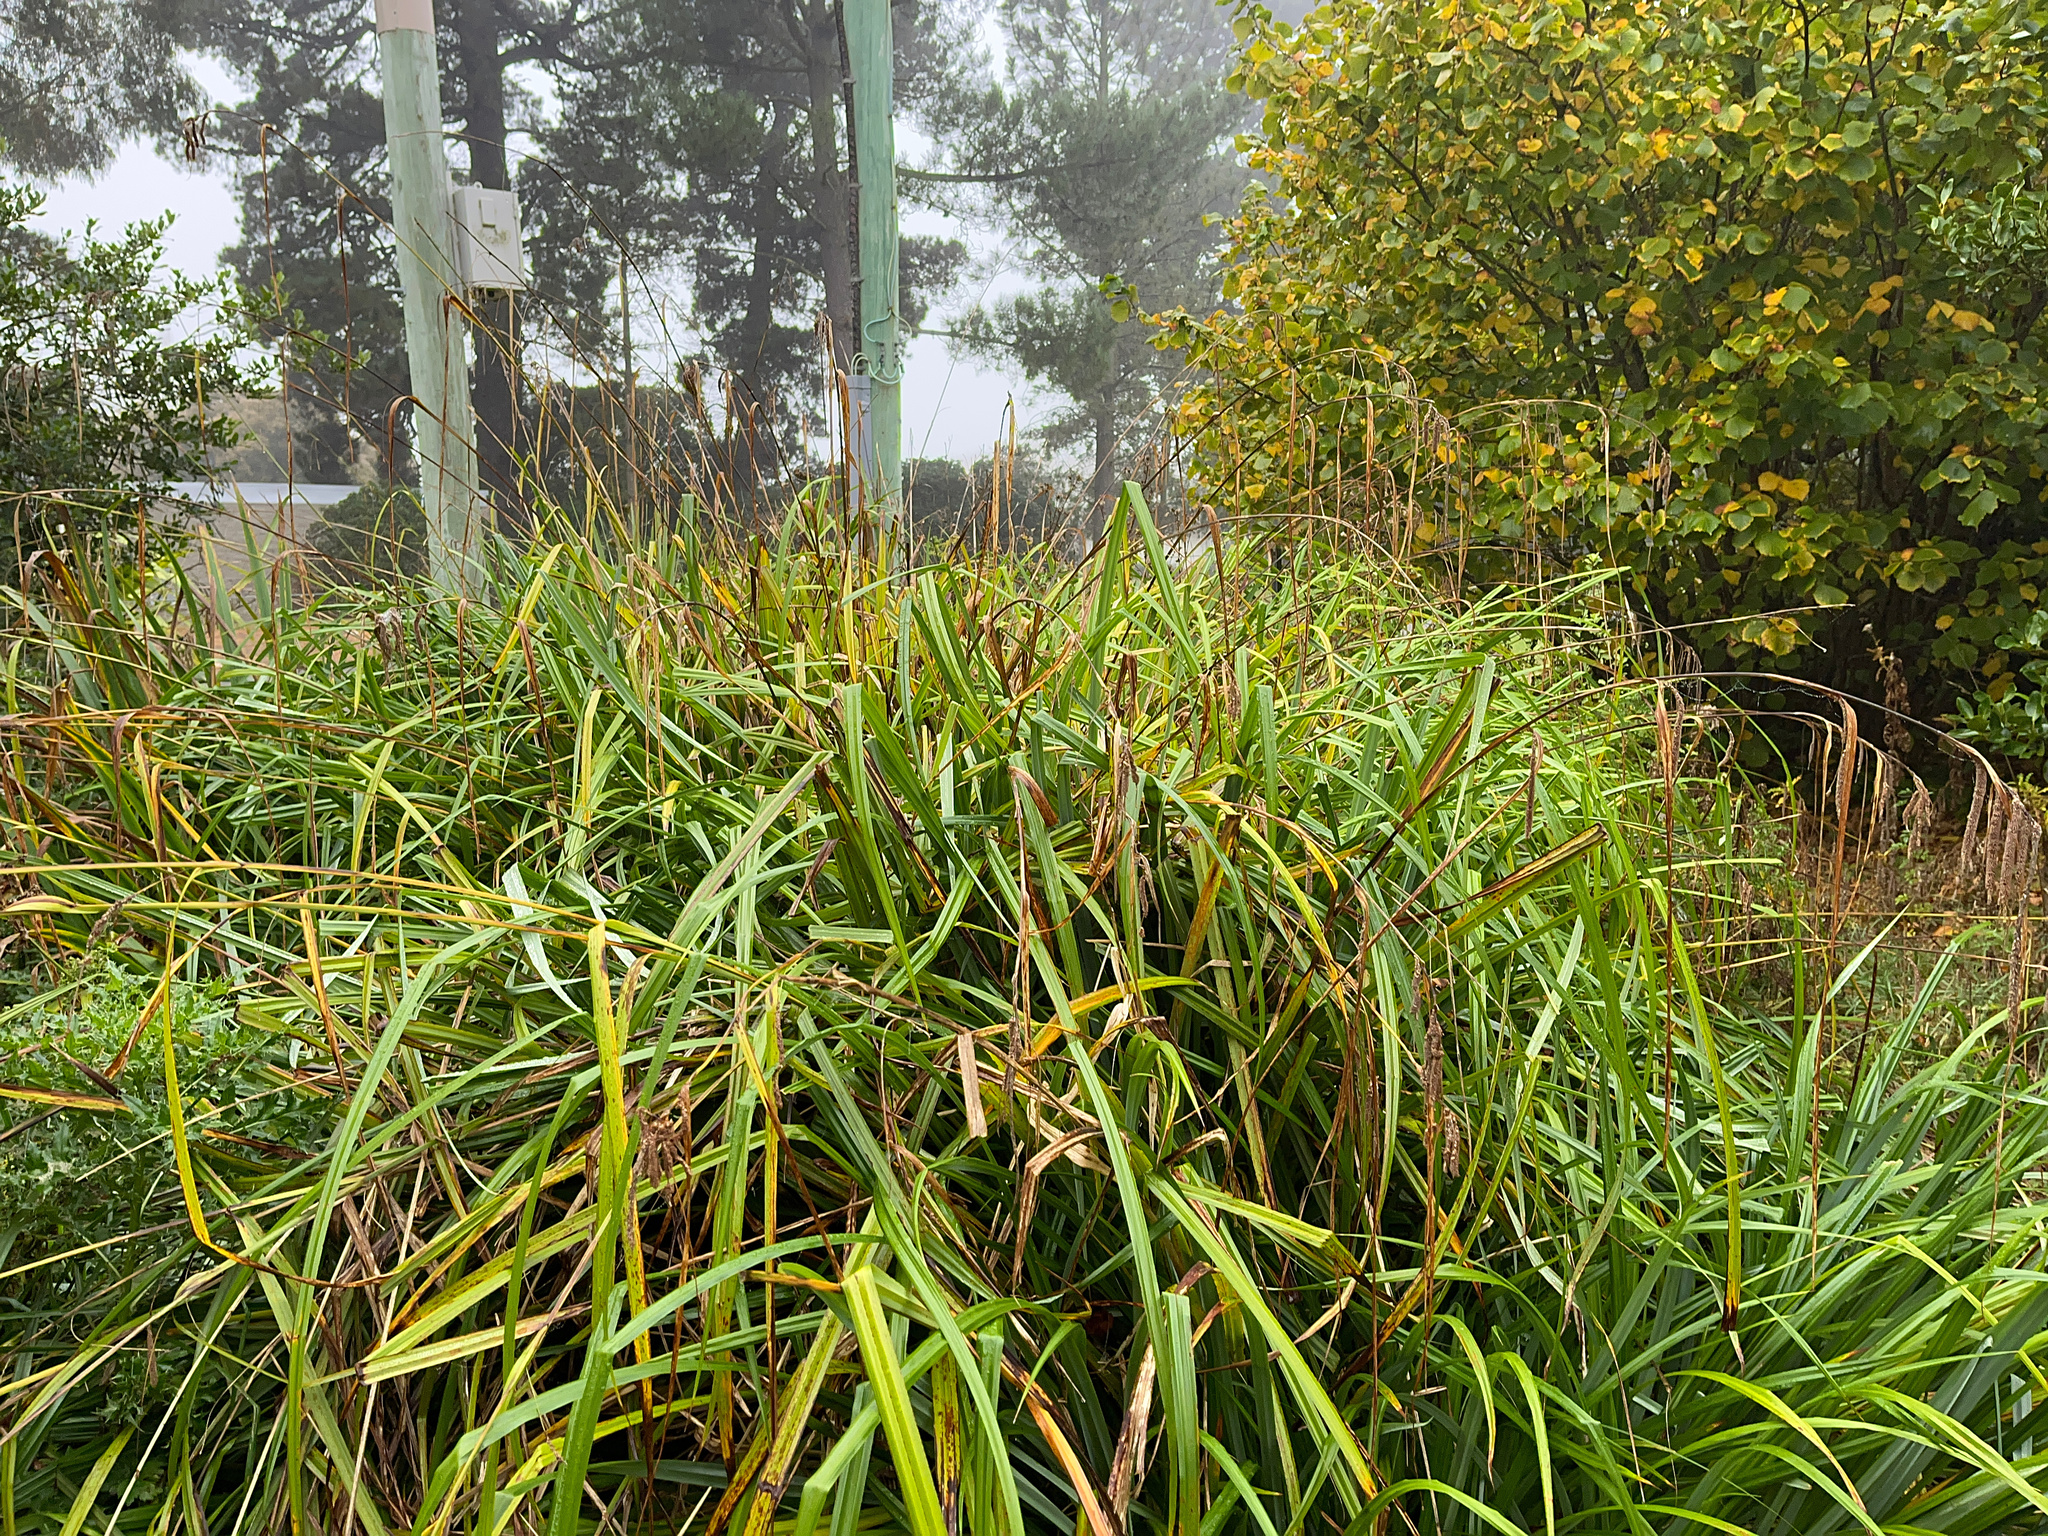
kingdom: Plantae
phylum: Tracheophyta
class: Liliopsida
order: Poales
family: Cyperaceae
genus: Carex
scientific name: Carex pendula
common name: Pendulous sedge
